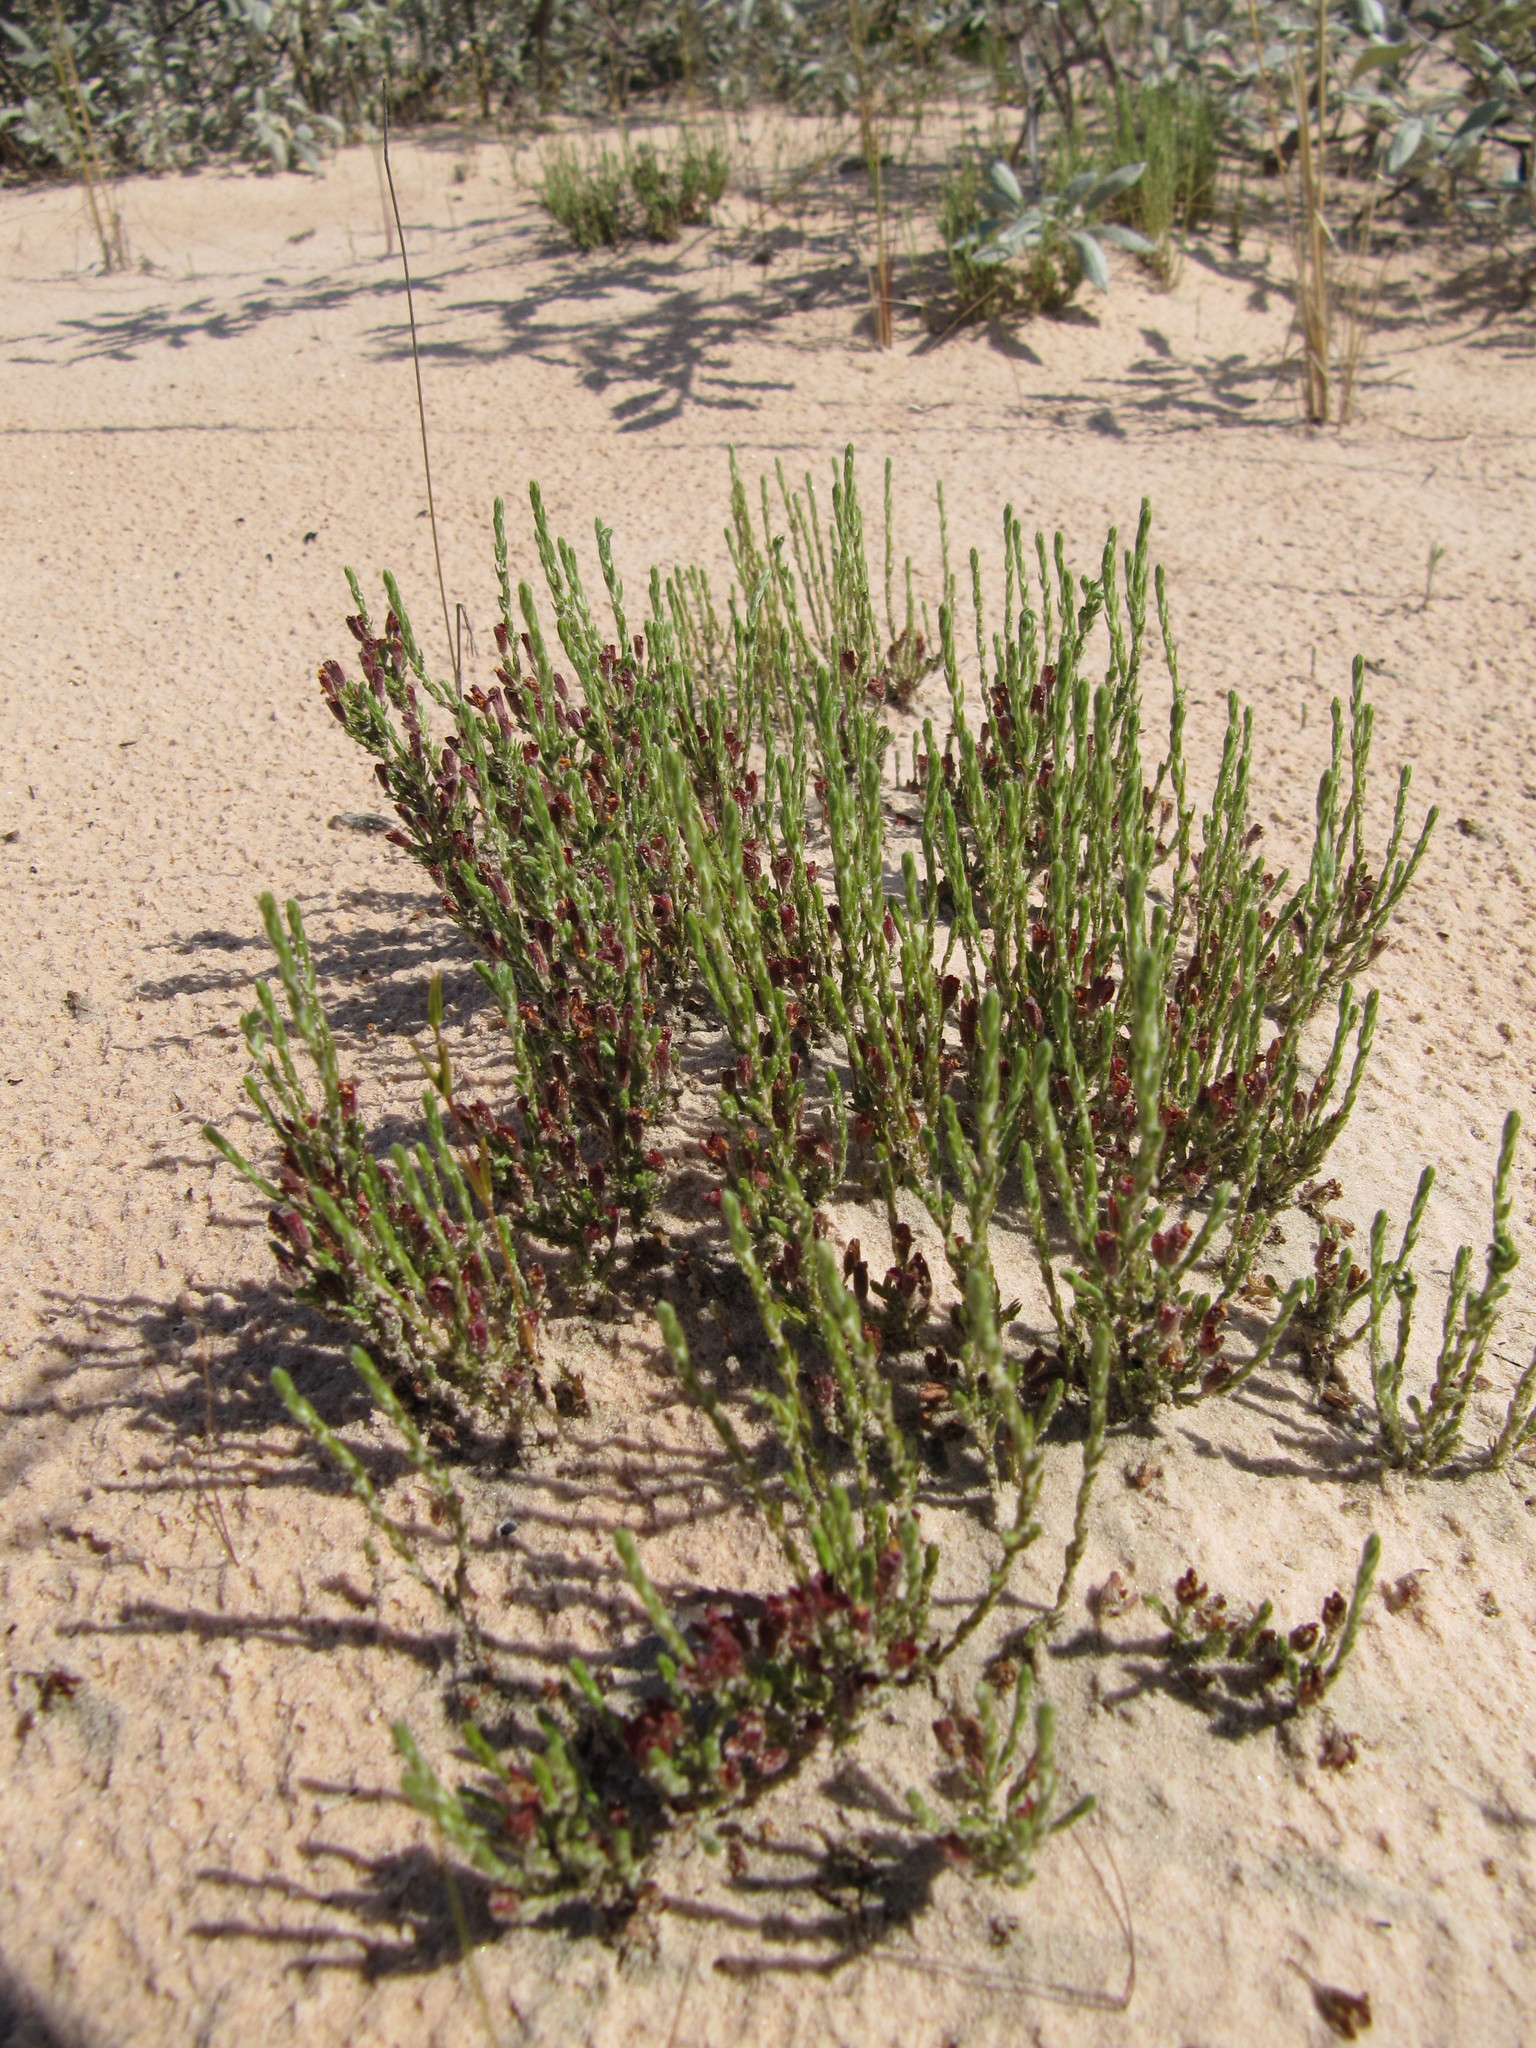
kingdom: Plantae
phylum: Tracheophyta
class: Magnoliopsida
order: Malvales
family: Cistaceae
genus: Hudsonia
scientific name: Hudsonia tomentosa
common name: Beach-heath
